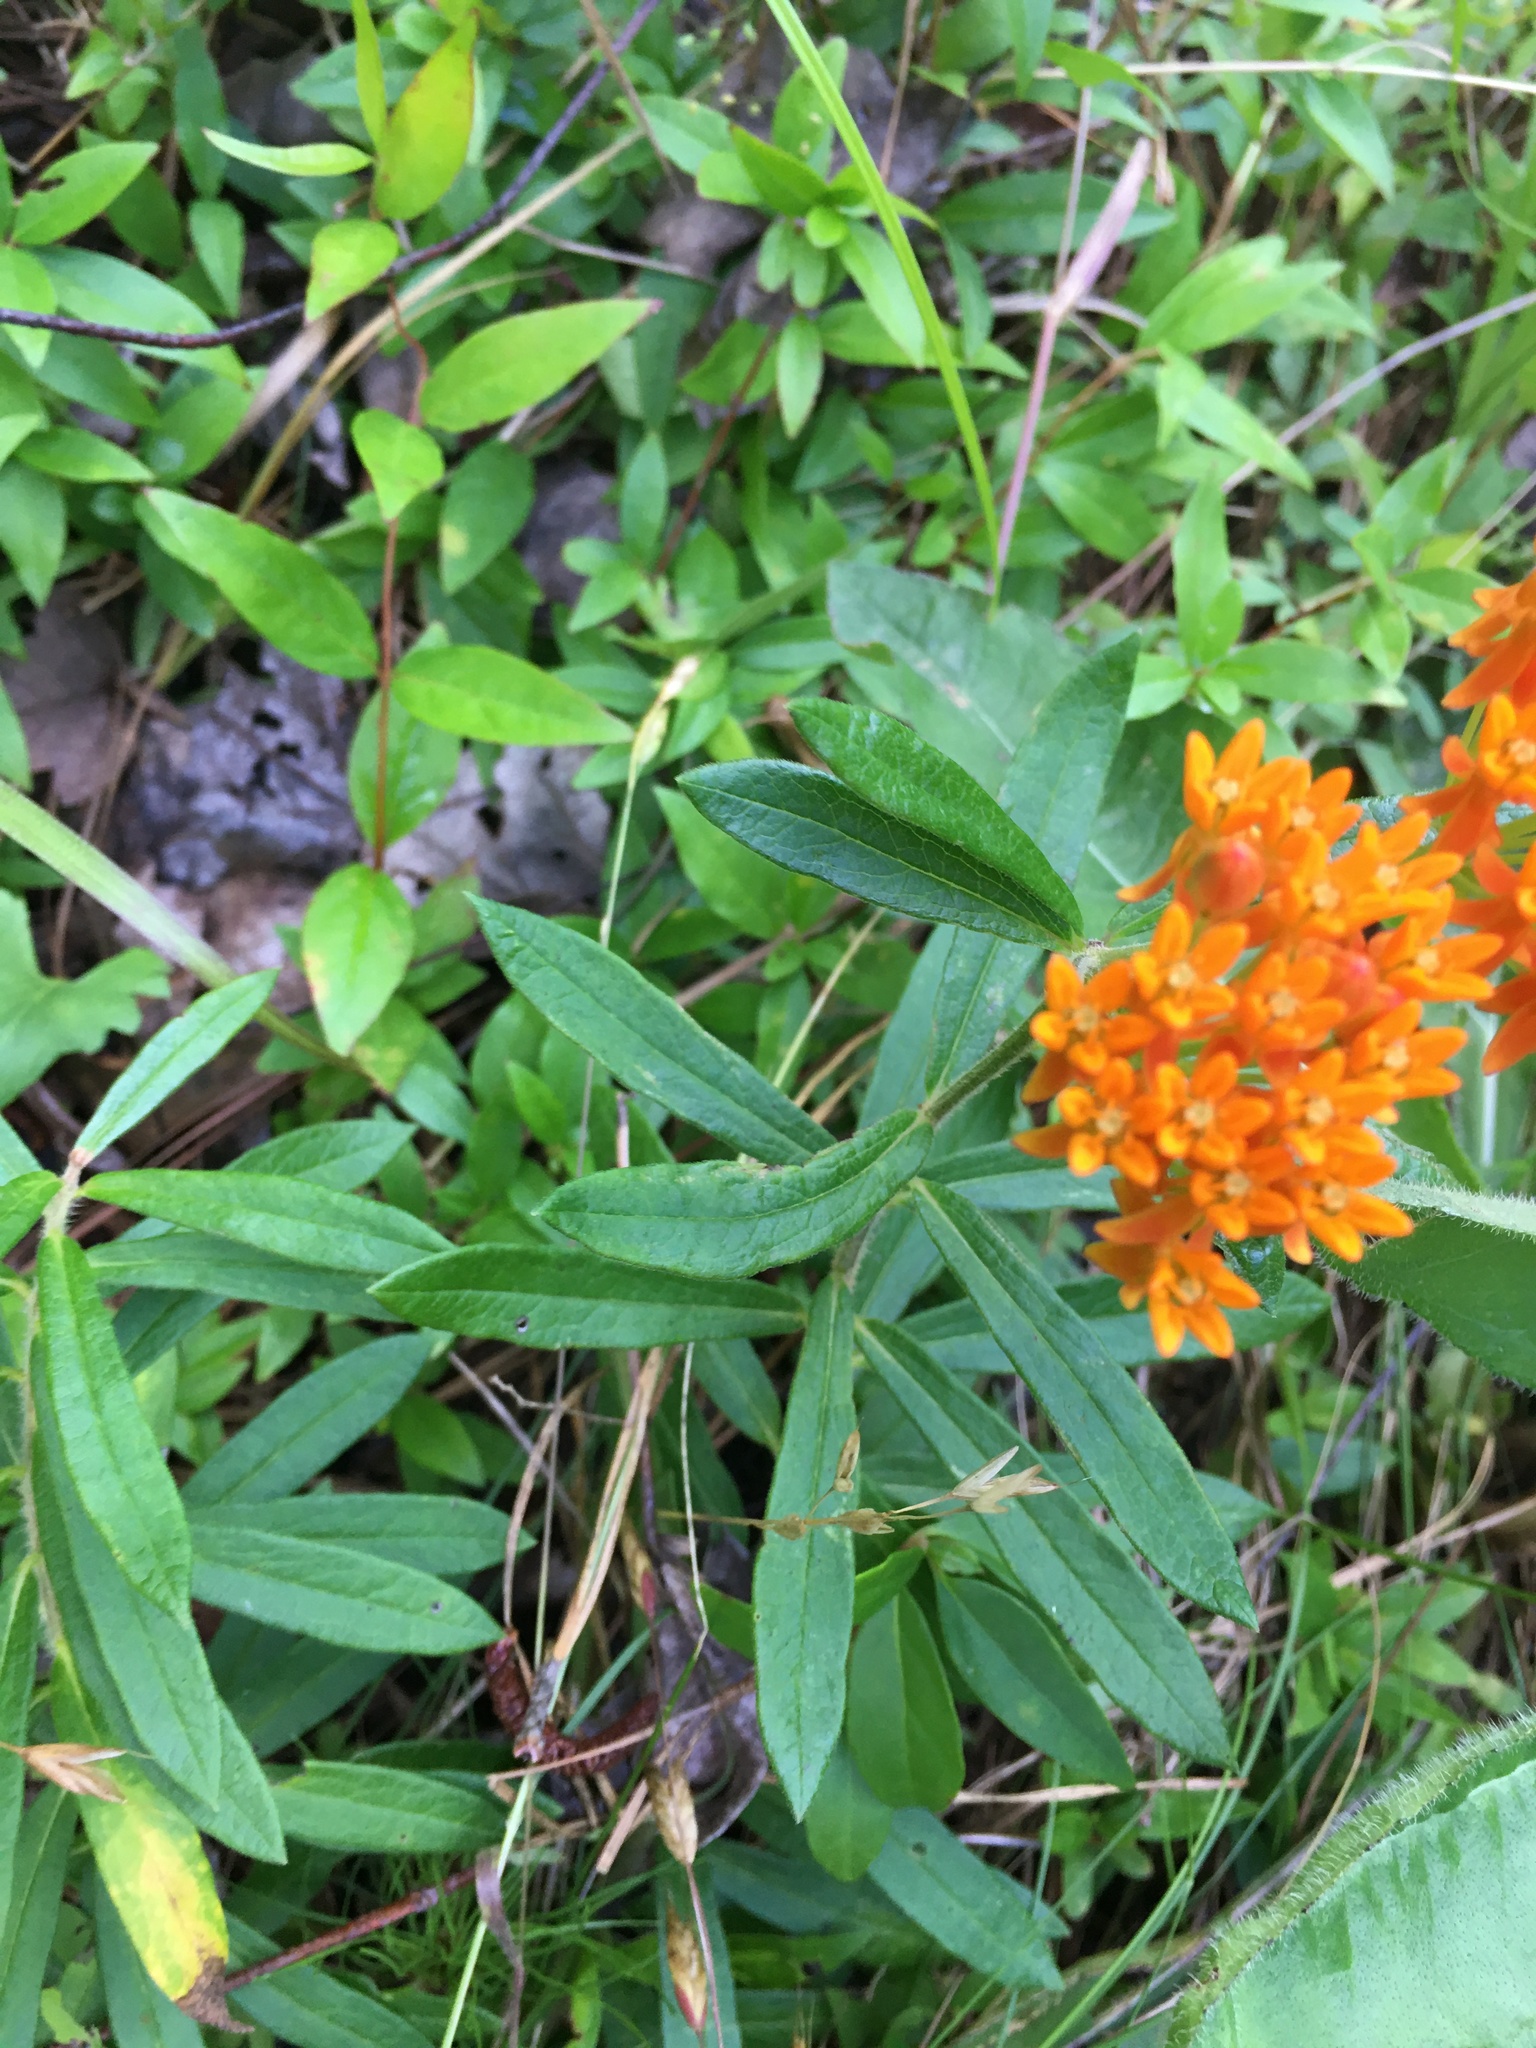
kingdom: Plantae
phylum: Tracheophyta
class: Magnoliopsida
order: Gentianales
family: Apocynaceae
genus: Asclepias
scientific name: Asclepias tuberosa
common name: Butterfly milkweed
